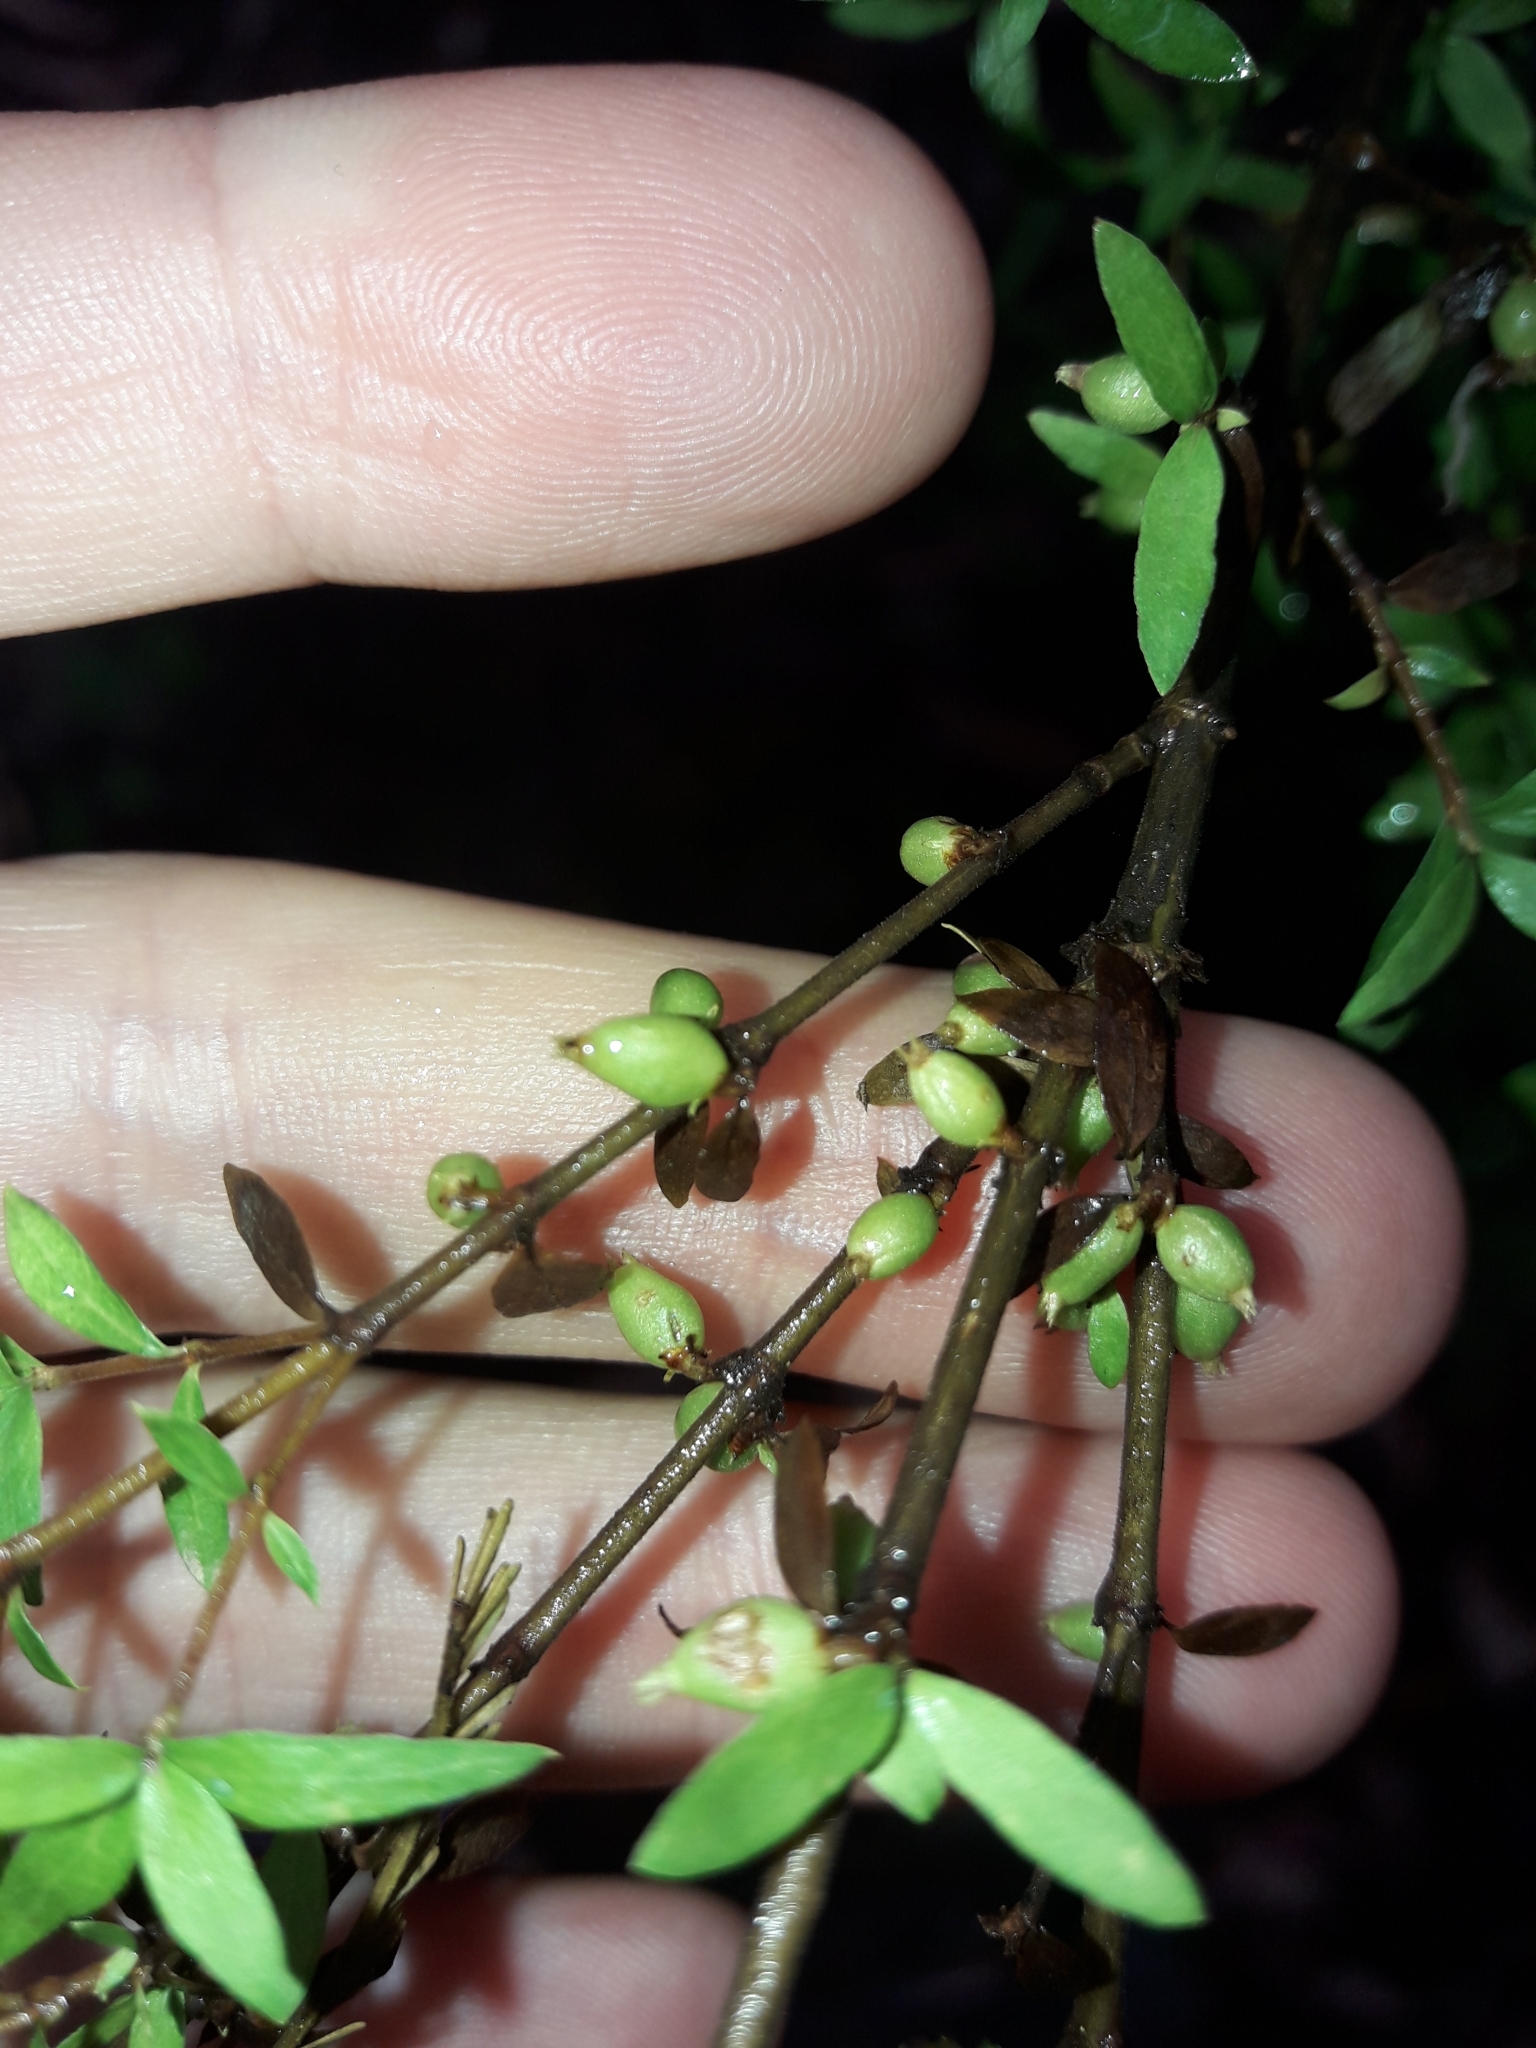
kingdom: Plantae
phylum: Tracheophyta
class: Magnoliopsida
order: Gentianales
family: Rubiaceae
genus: Coprosma
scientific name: Coprosma quadrifida
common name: Prickly currantbush
